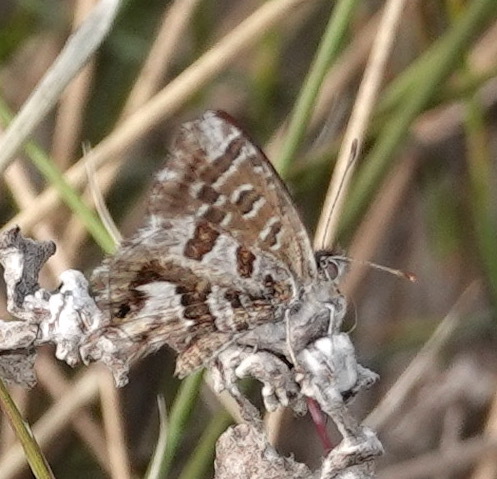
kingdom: Animalia
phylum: Arthropoda
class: Insecta
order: Lepidoptera
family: Lycaenidae
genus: Cacyreus
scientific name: Cacyreus fracta
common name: Water bronze
